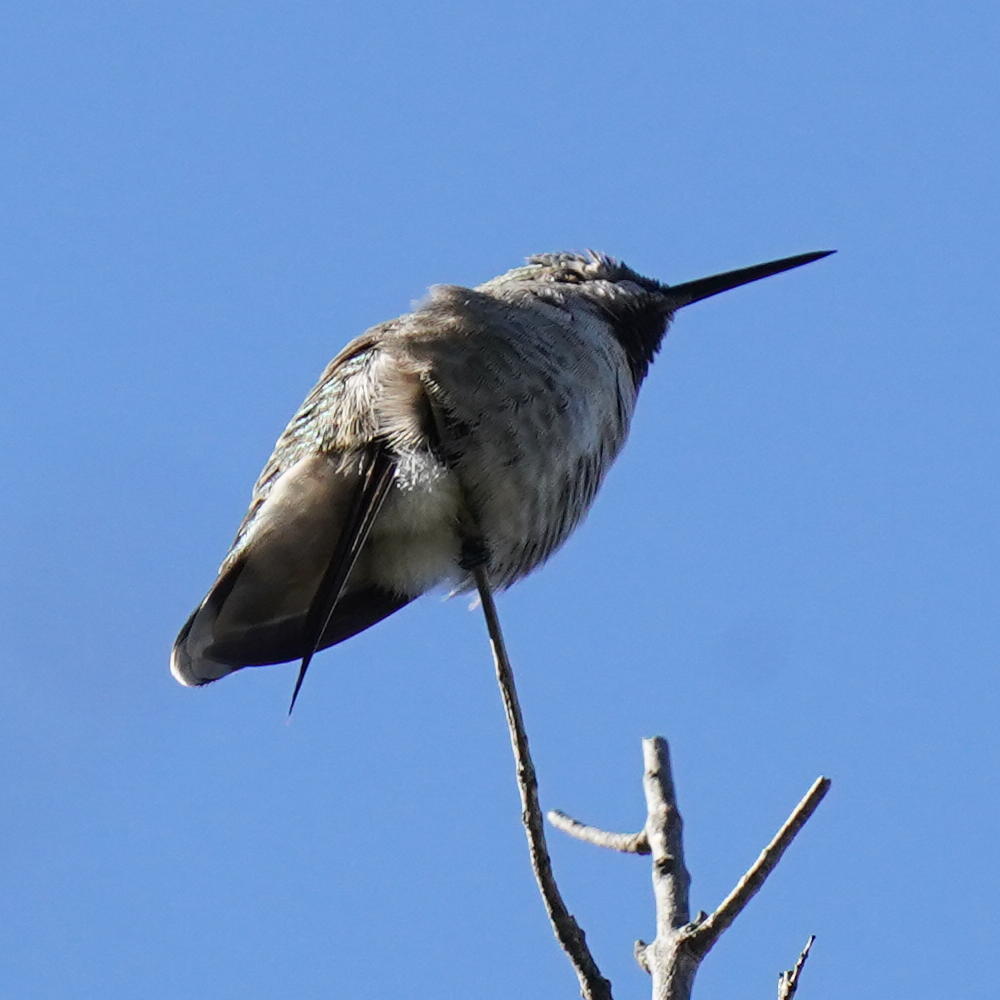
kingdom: Animalia
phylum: Chordata
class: Aves
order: Apodiformes
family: Trochilidae
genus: Calypte
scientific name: Calypte anna
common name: Anna's hummingbird
